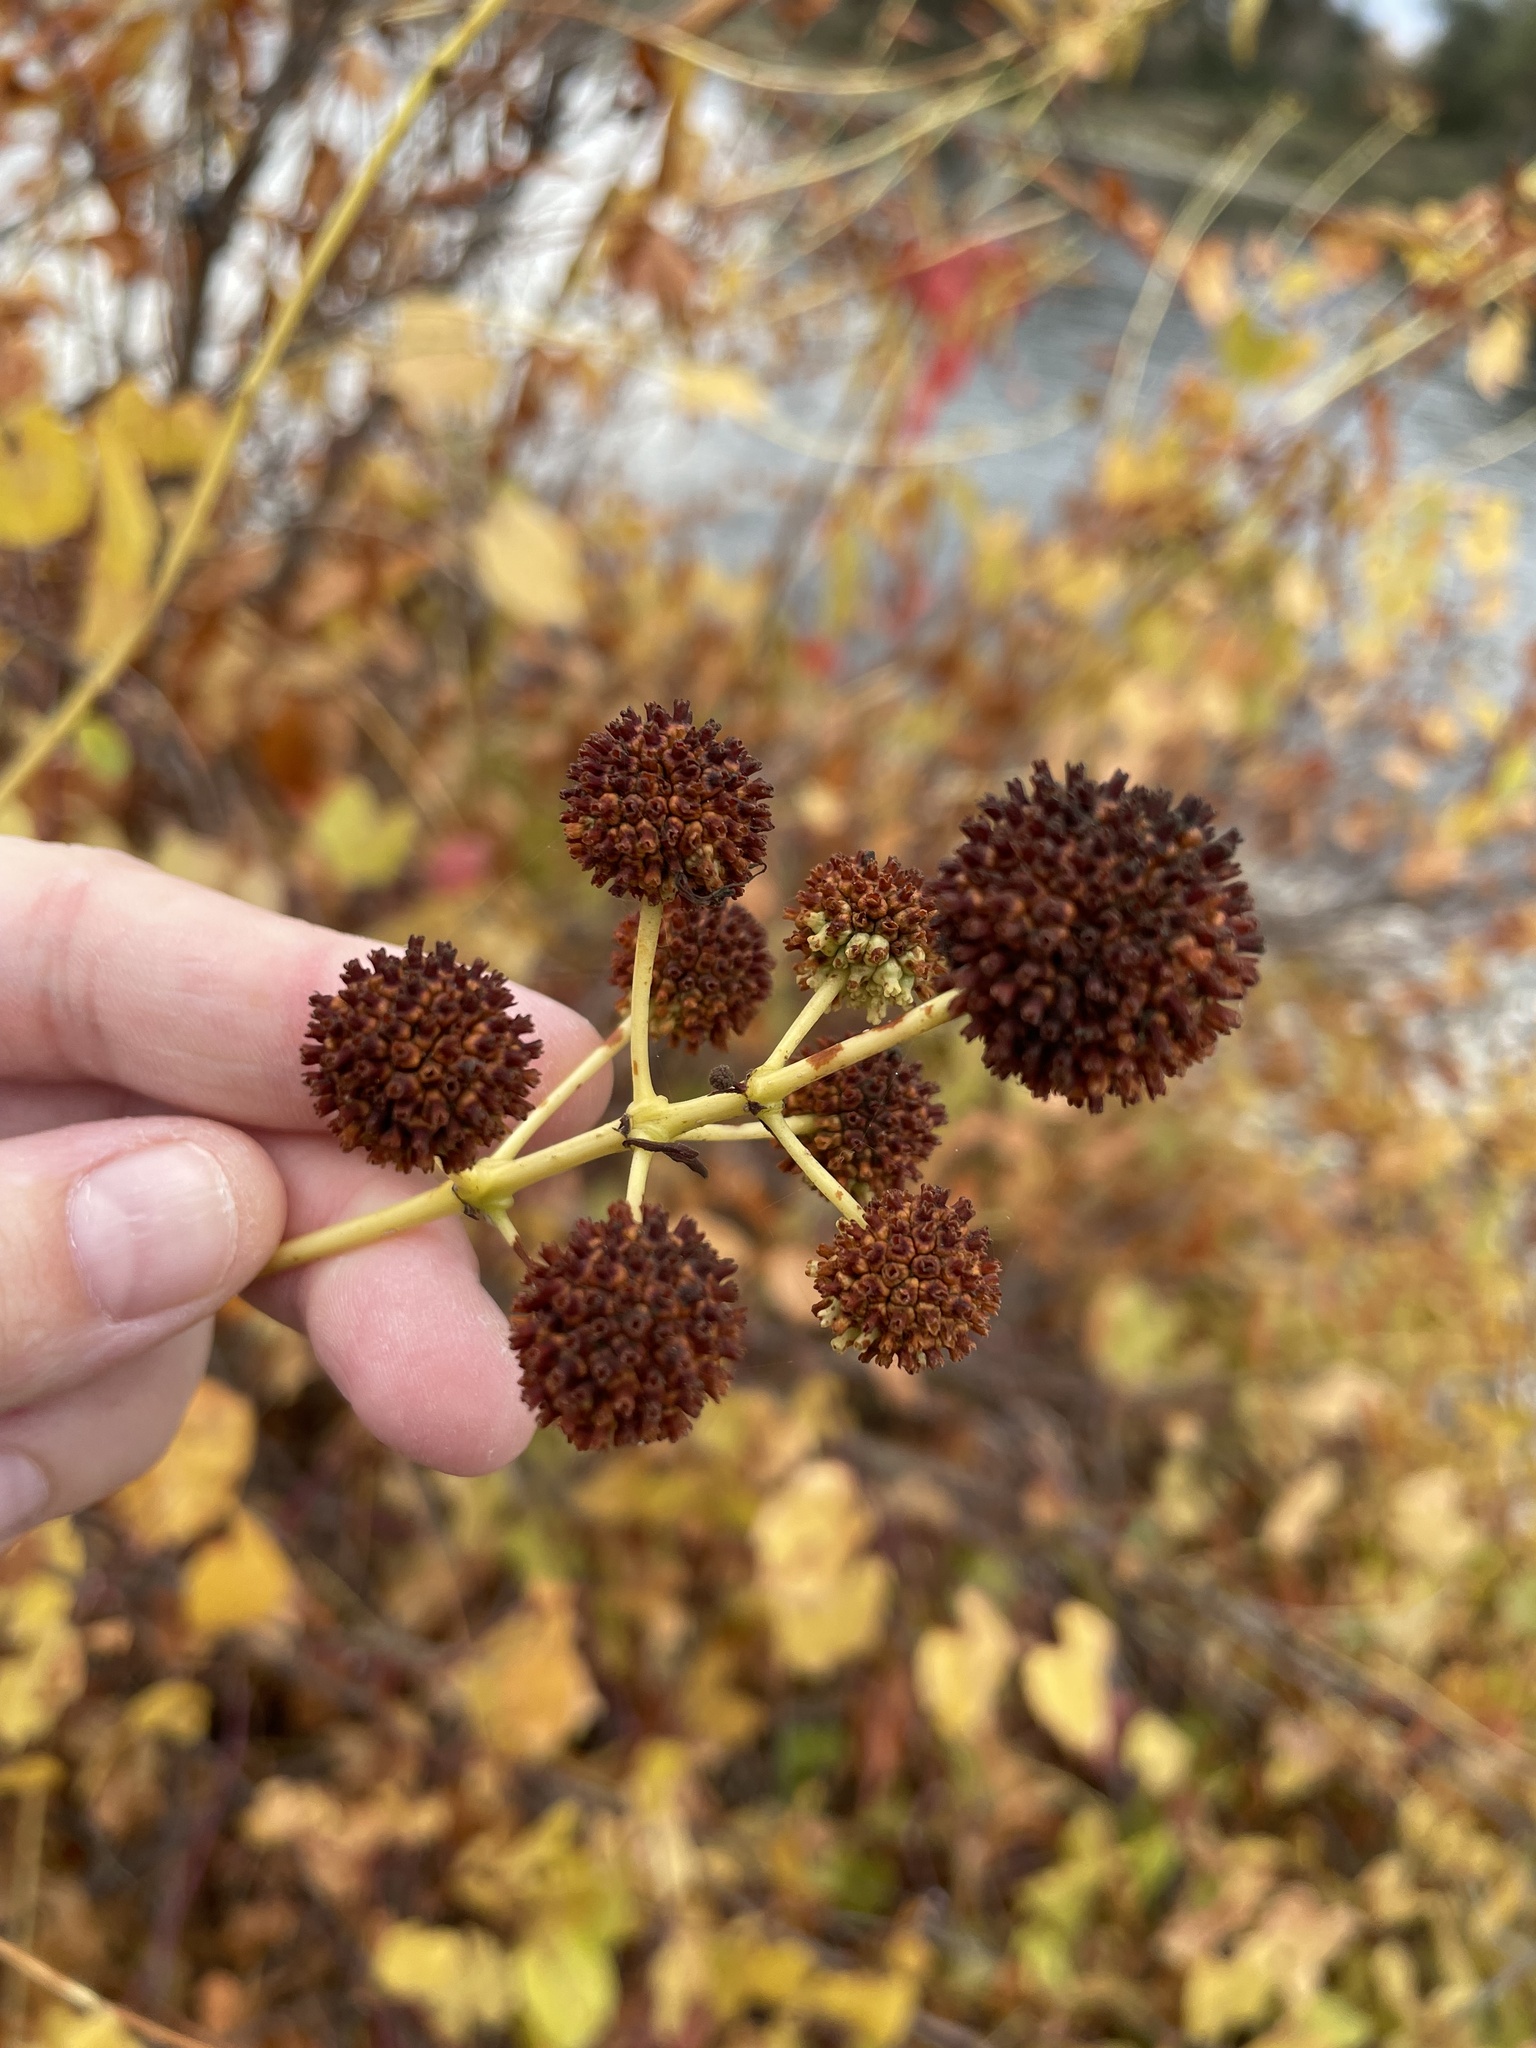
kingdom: Plantae
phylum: Tracheophyta
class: Magnoliopsida
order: Gentianales
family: Rubiaceae
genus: Cephalanthus
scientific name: Cephalanthus occidentalis
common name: Button-willow
